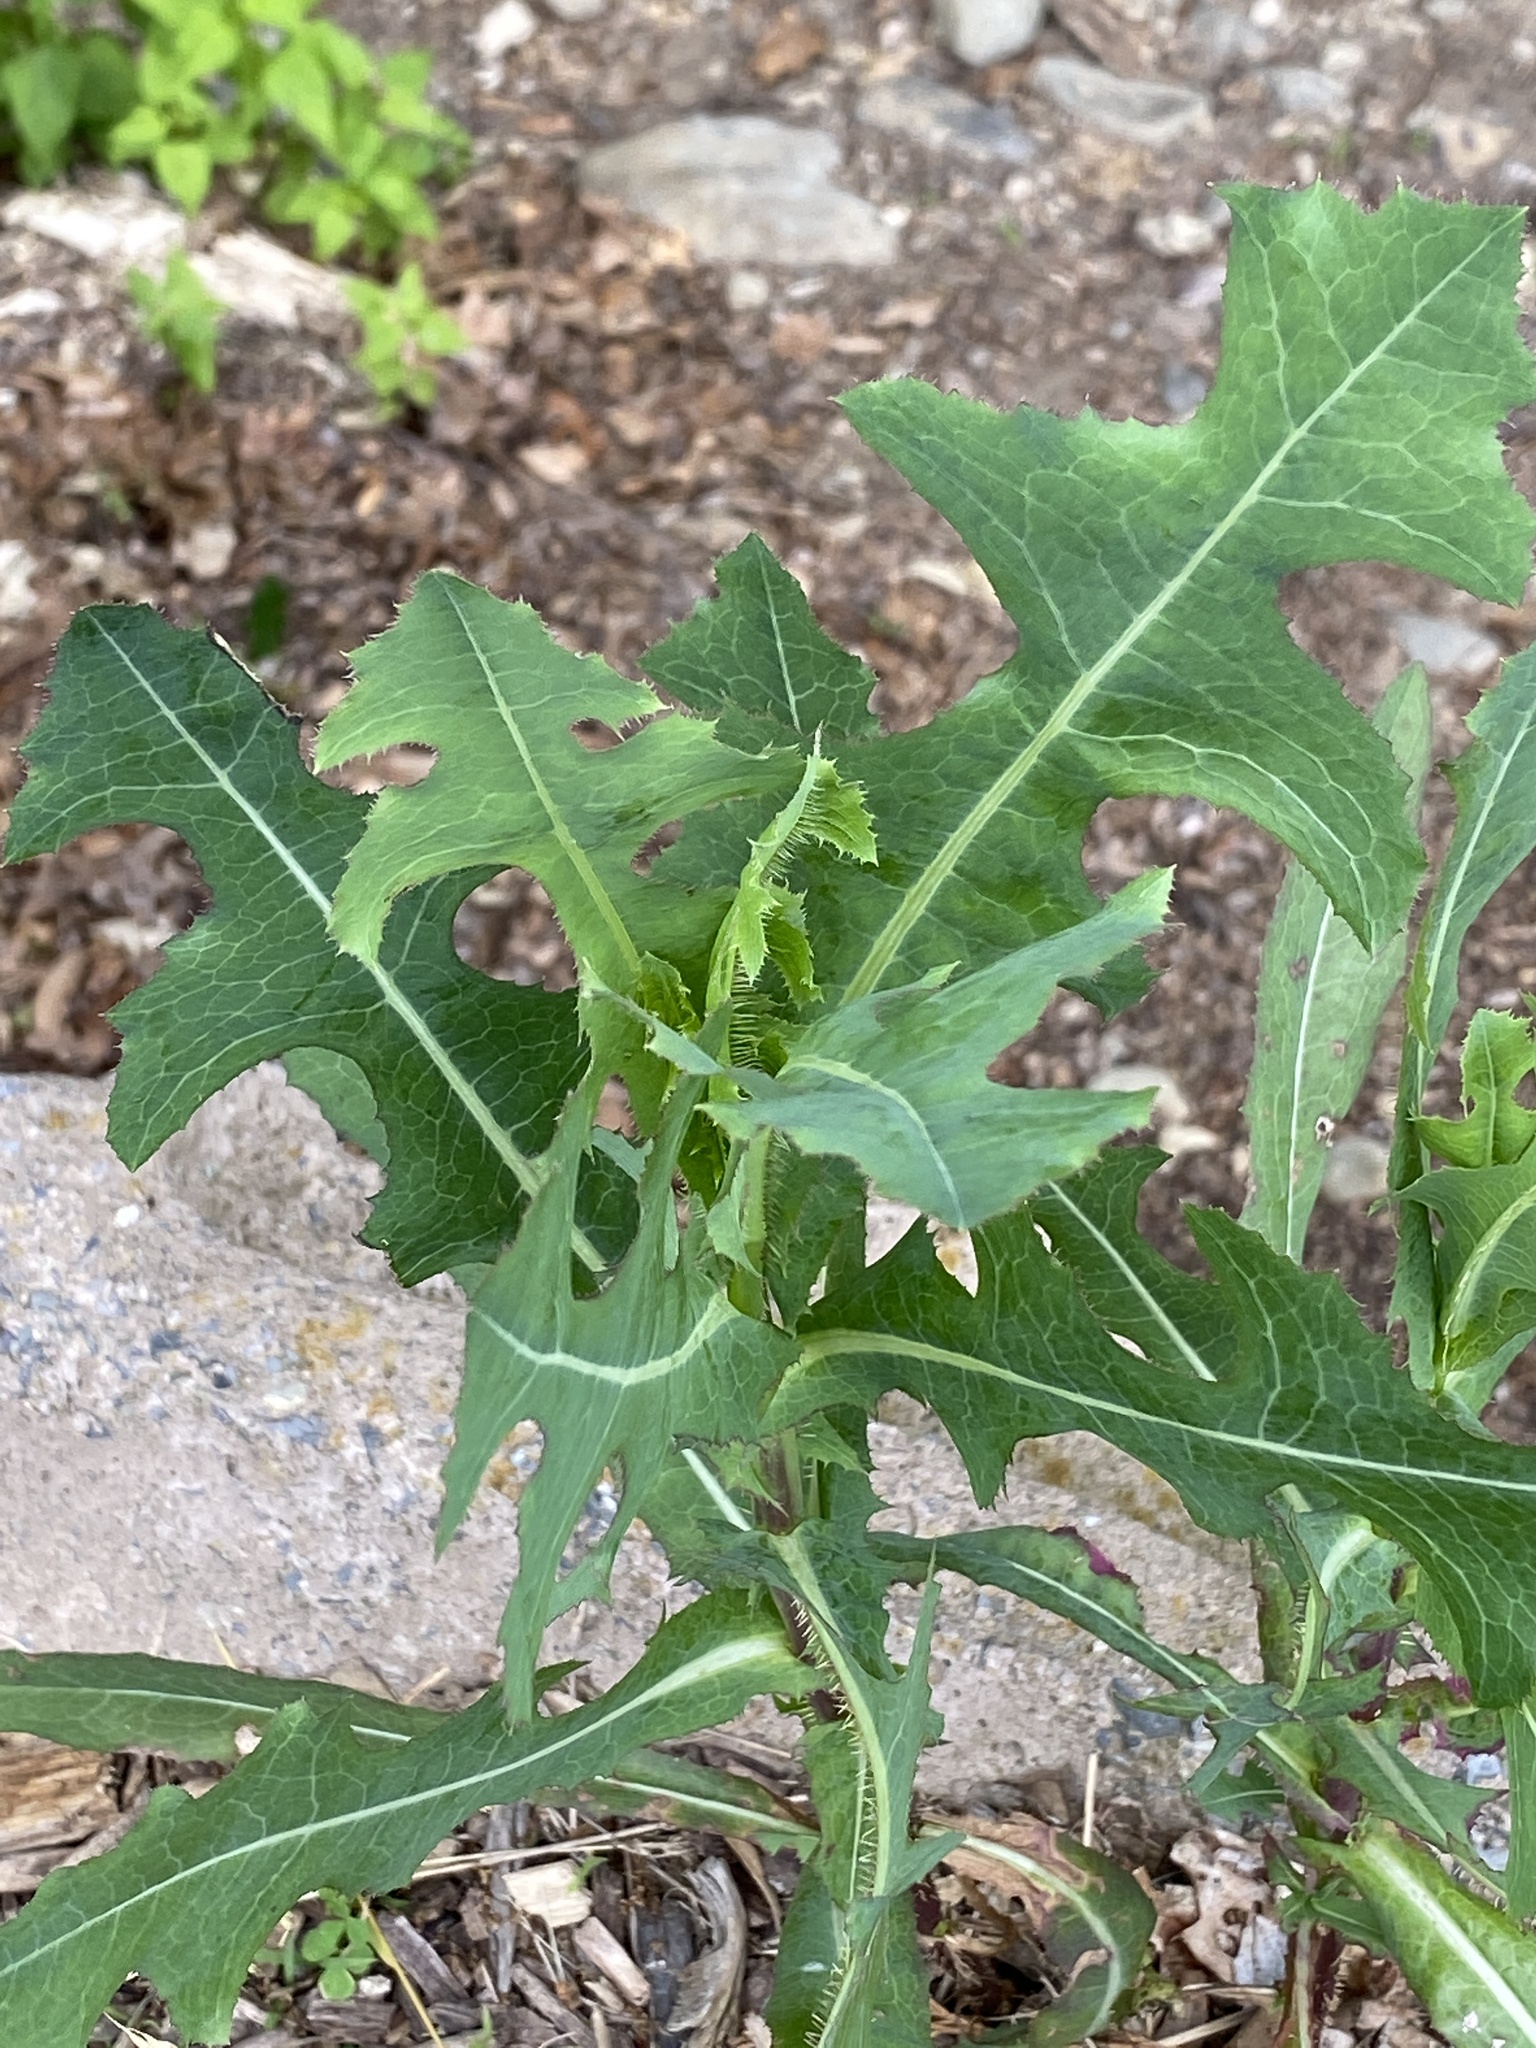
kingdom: Plantae
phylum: Tracheophyta
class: Magnoliopsida
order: Asterales
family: Asteraceae
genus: Lactuca
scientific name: Lactuca serriola
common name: Prickly lettuce
